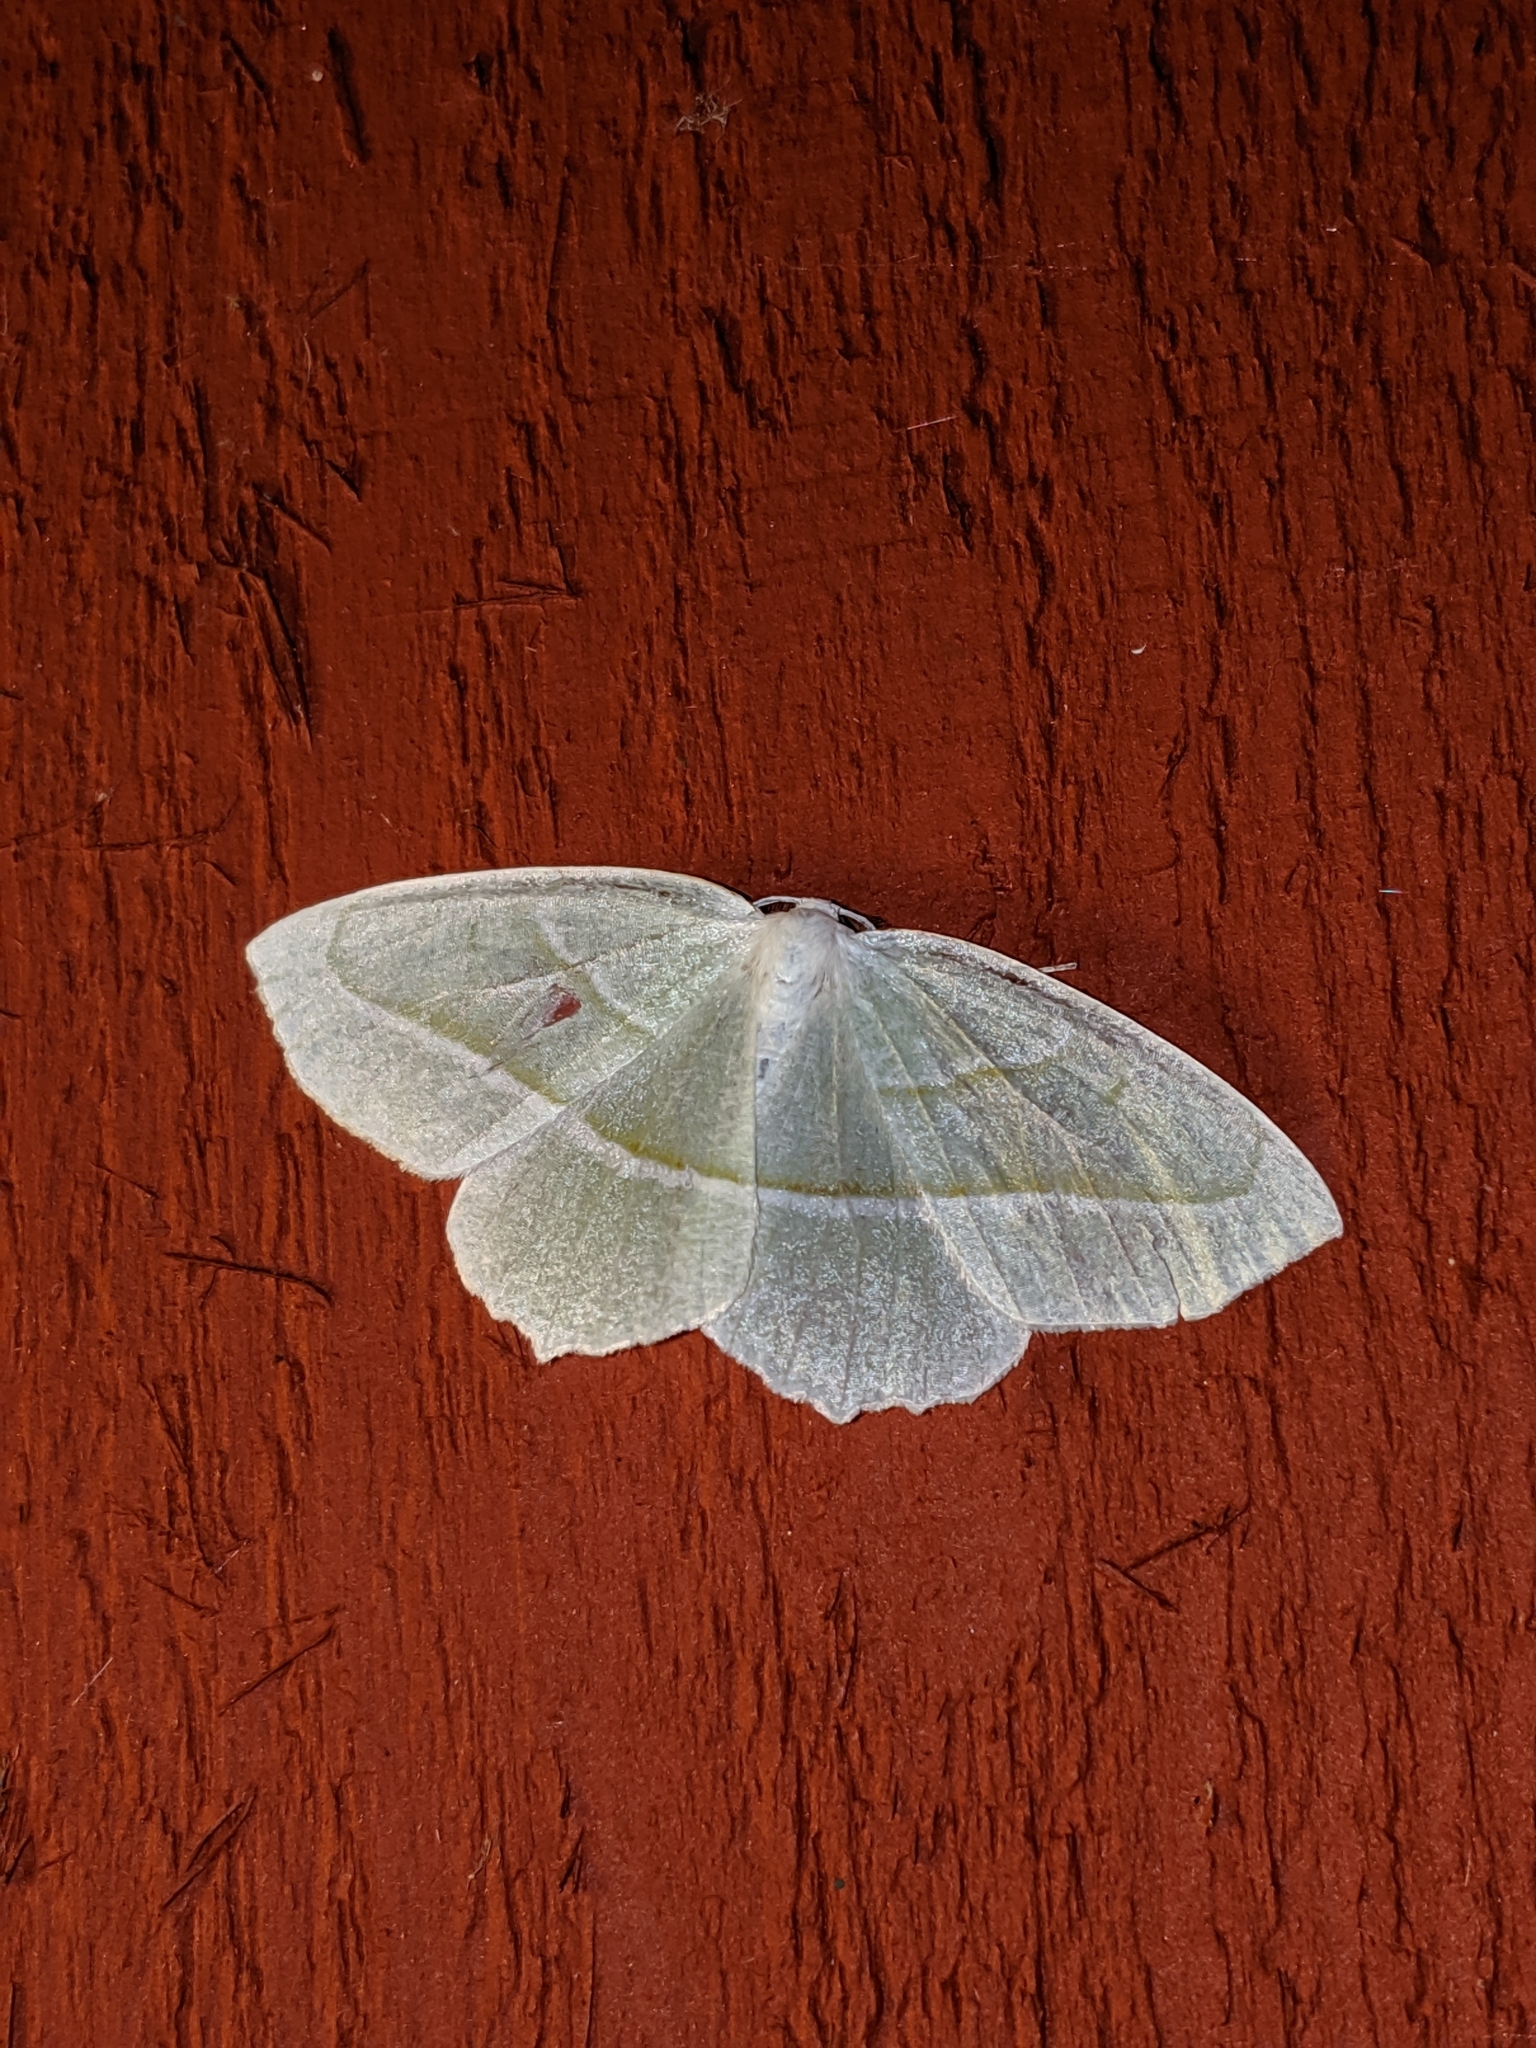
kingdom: Animalia
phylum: Arthropoda
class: Insecta
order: Lepidoptera
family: Geometridae
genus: Campaea
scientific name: Campaea perlata
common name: Fringed looper
